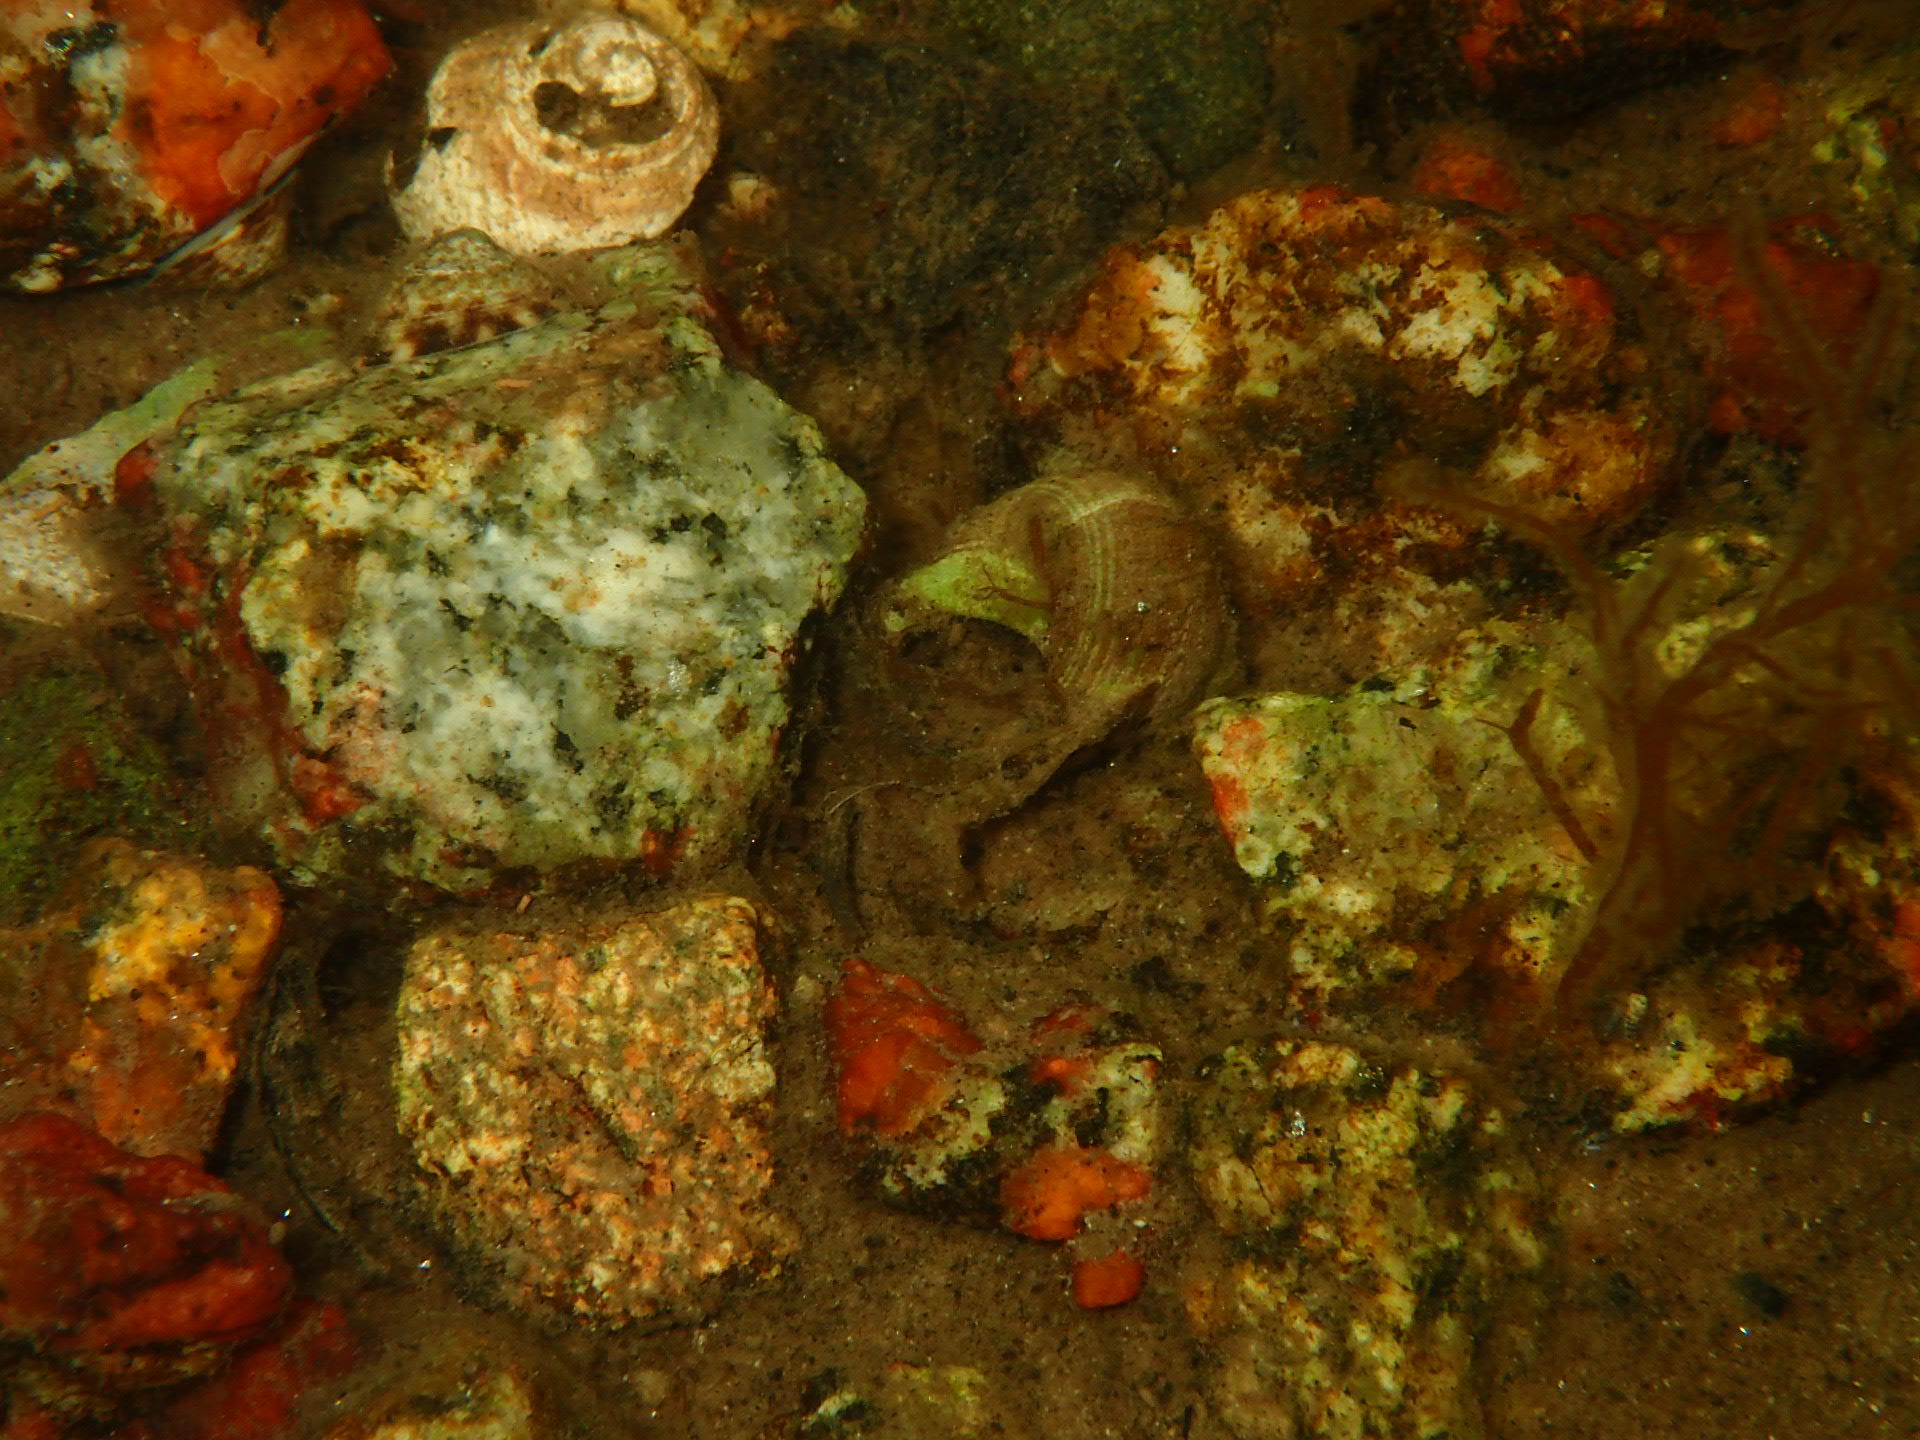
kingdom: Animalia
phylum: Mollusca
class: Gastropoda
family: Lottiidae
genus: Testudinalia
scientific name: Testudinalia testudinalis
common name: Common tortoiseshell limpet
